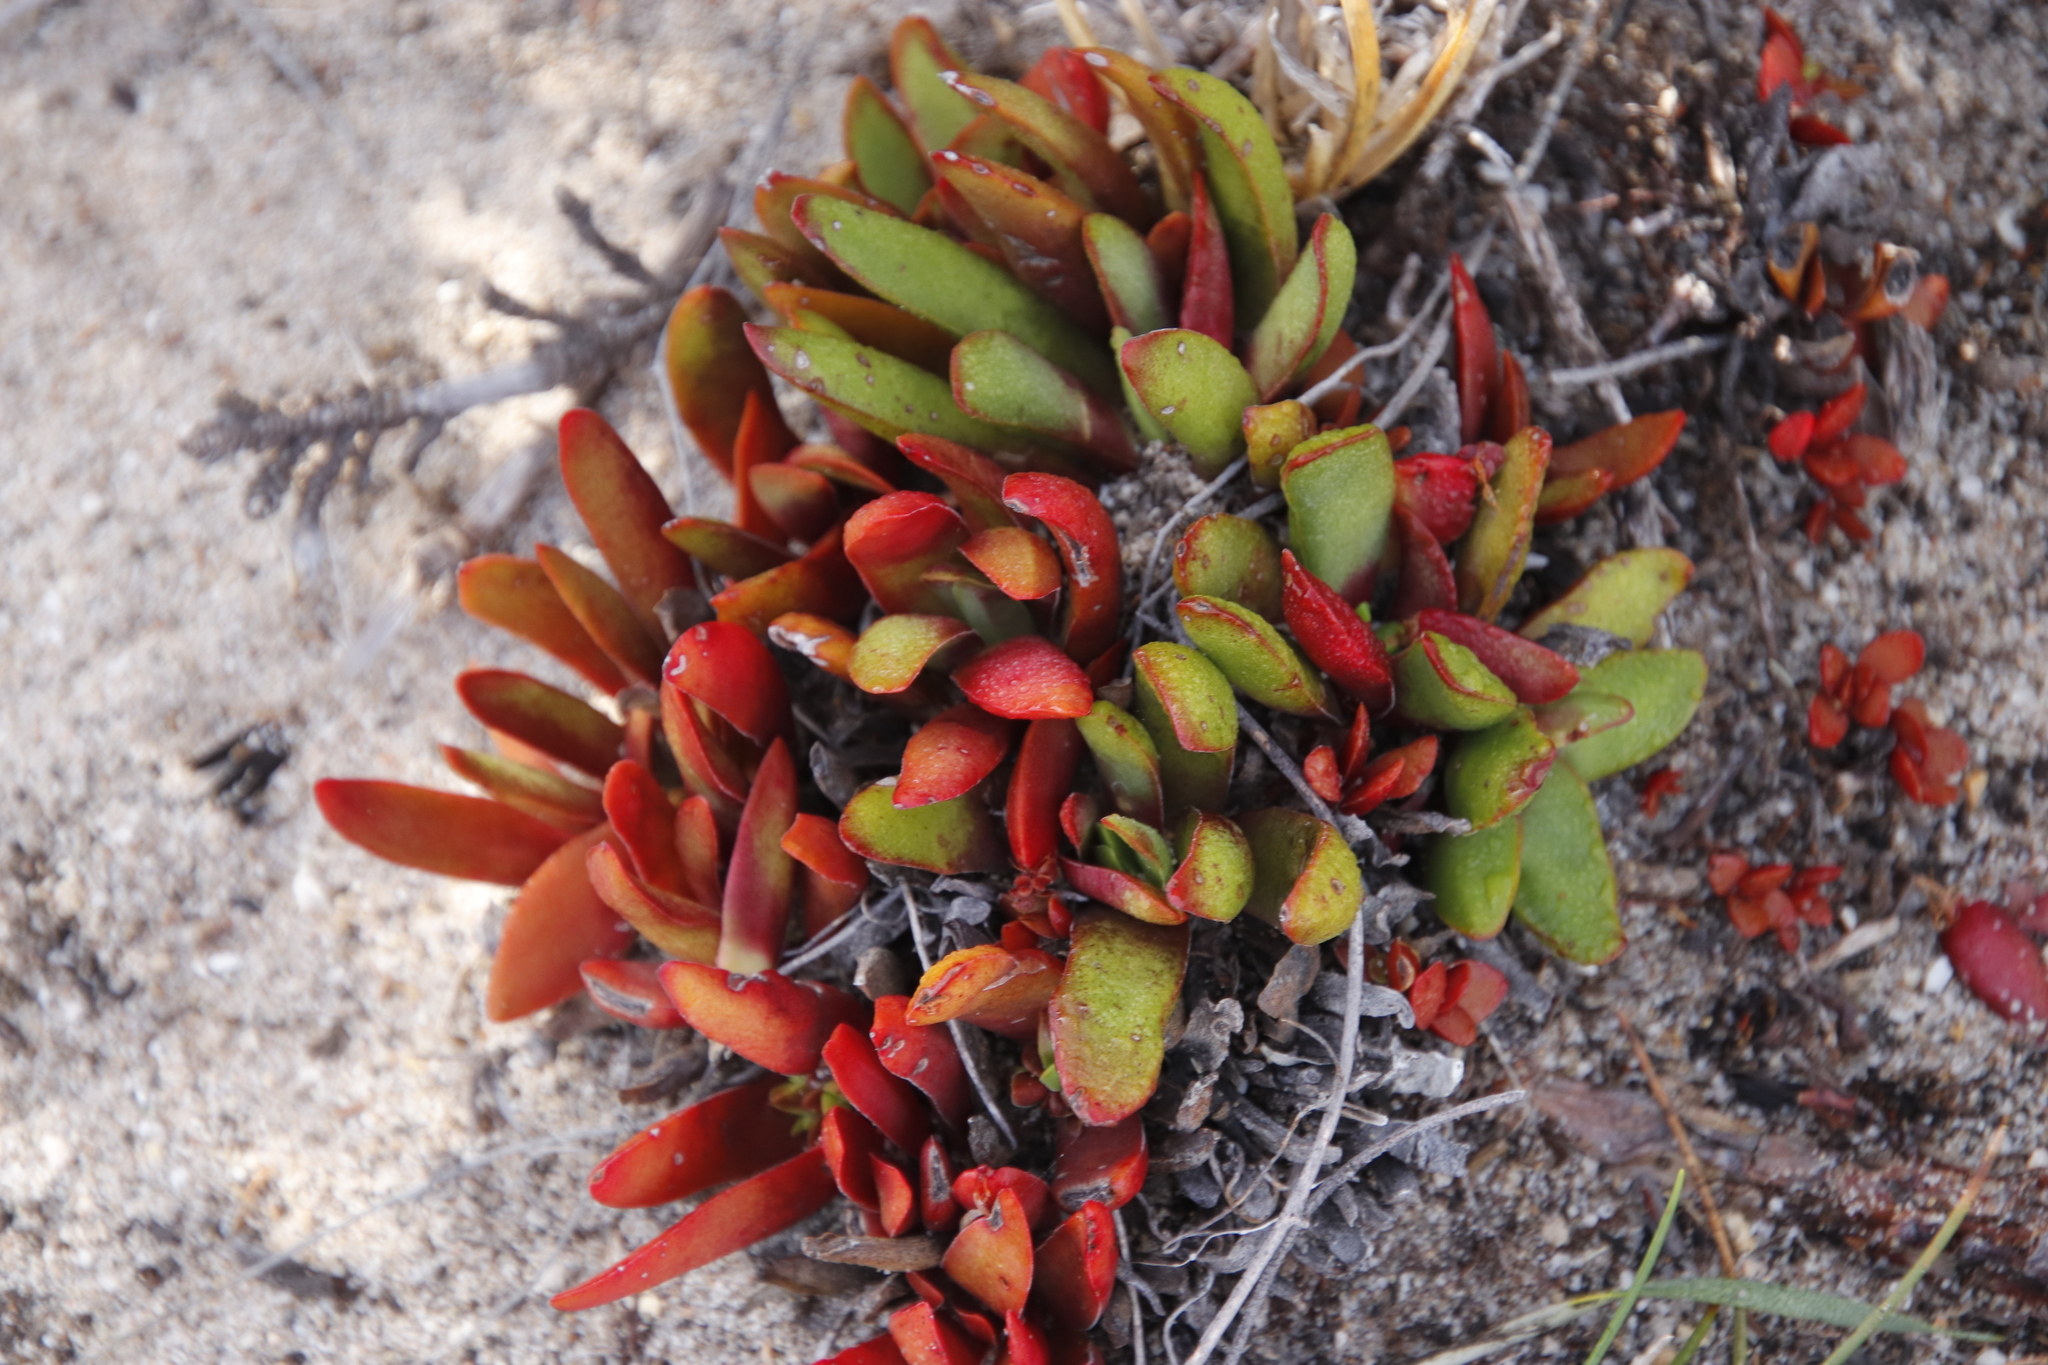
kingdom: Plantae
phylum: Tracheophyta
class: Magnoliopsida
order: Saxifragales
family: Crassulaceae
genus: Crassula
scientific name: Crassula nudicaulis
